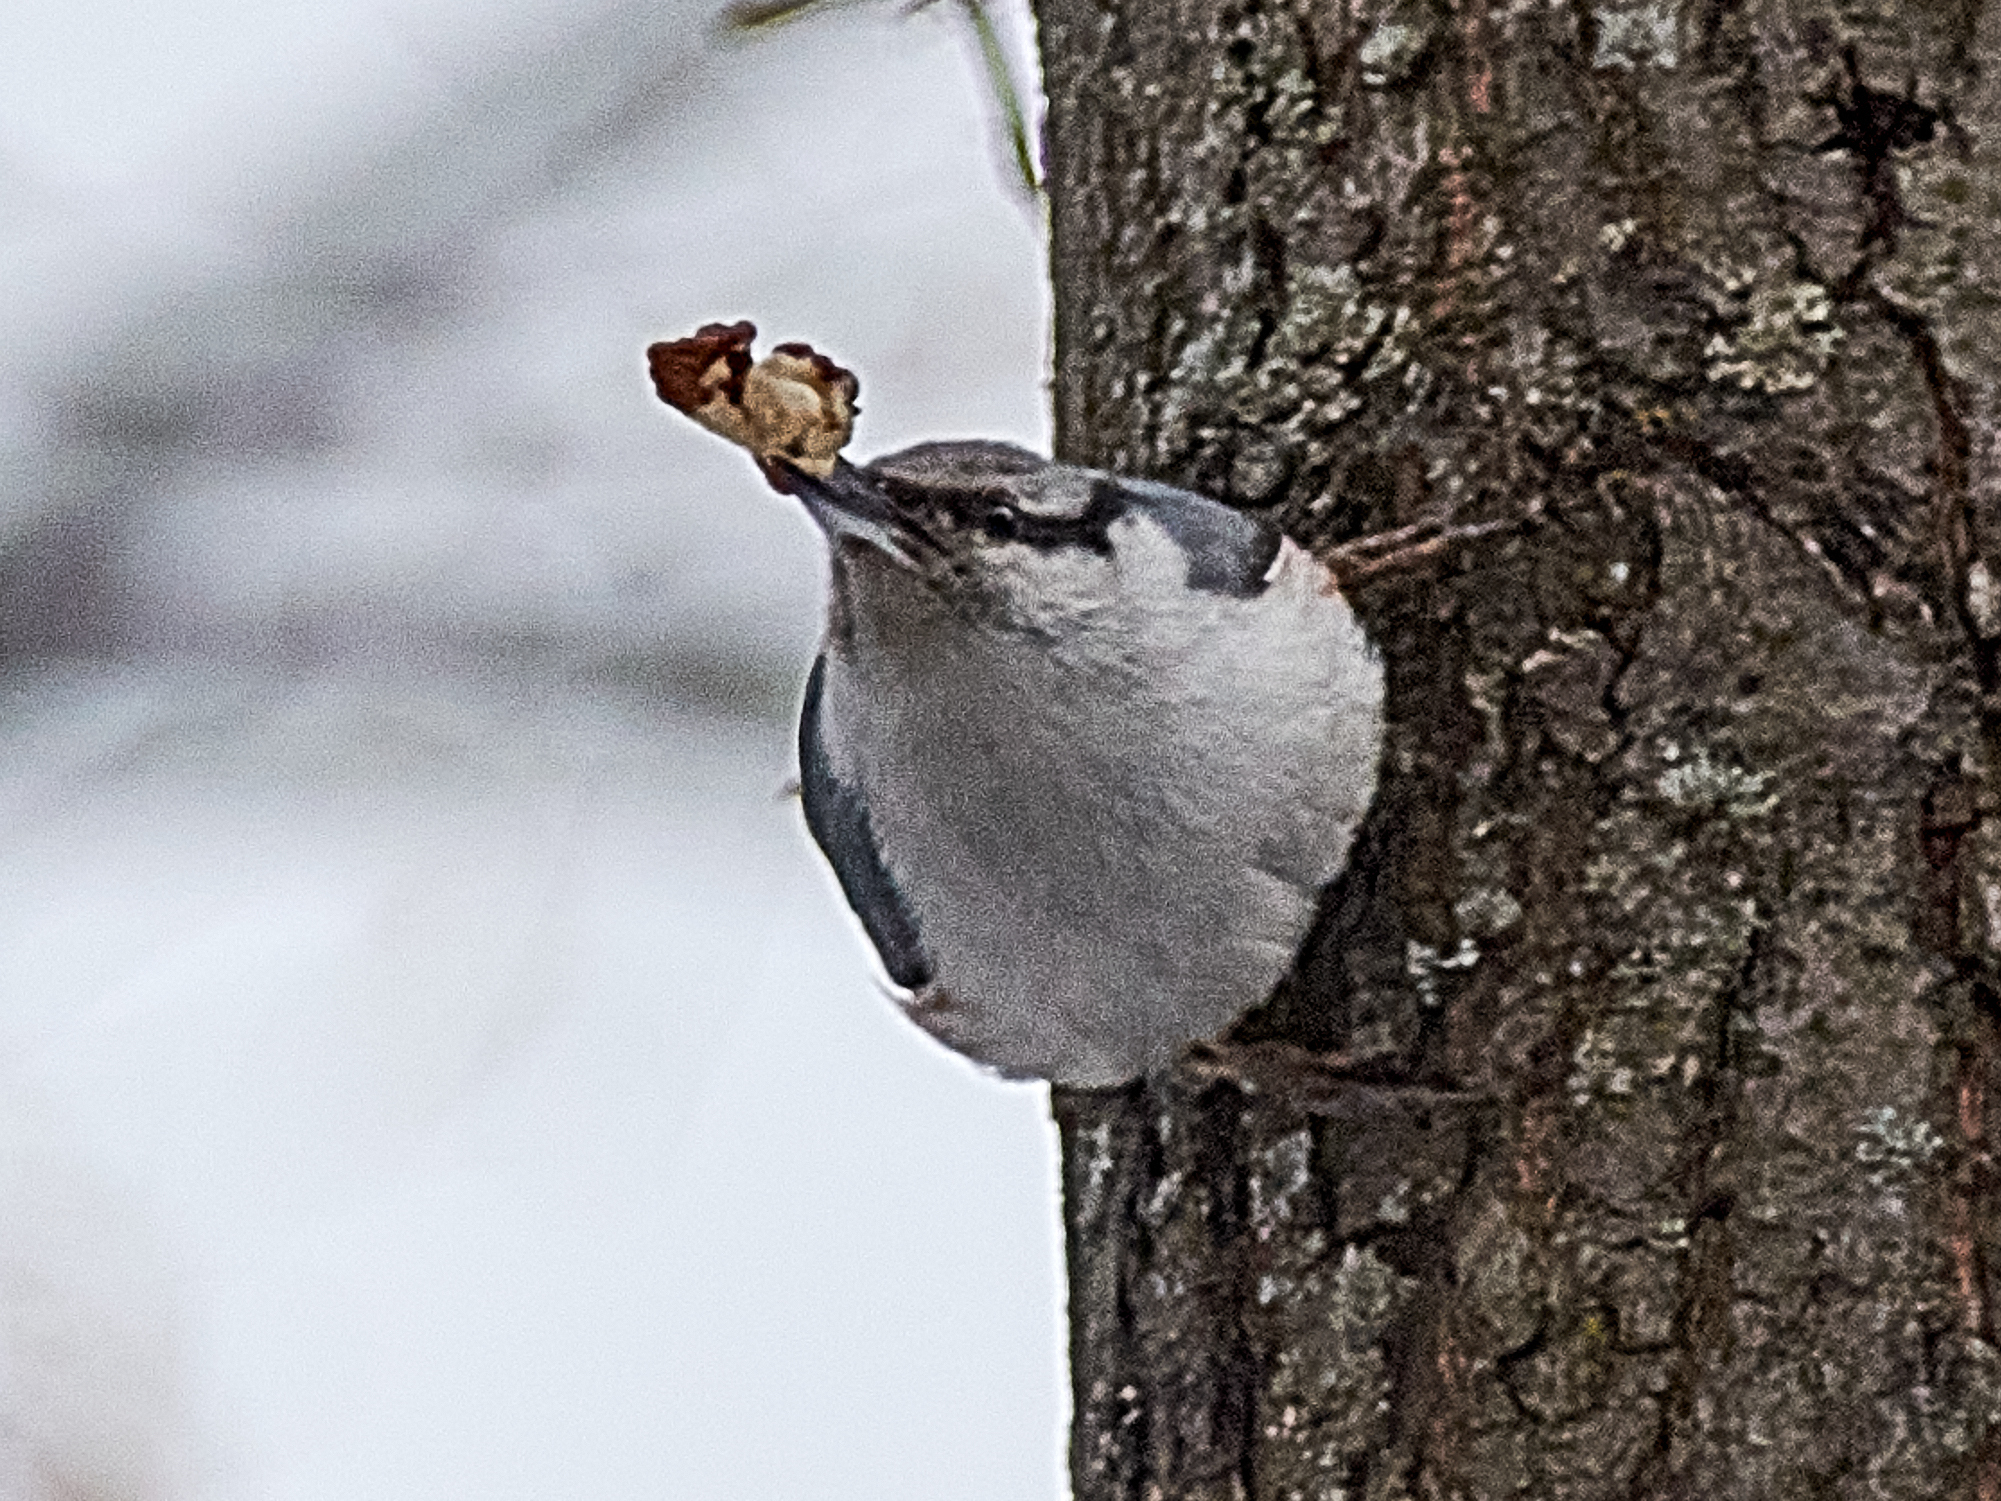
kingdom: Animalia
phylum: Chordata
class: Aves
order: Passeriformes
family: Sittidae
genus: Sitta
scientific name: Sitta europaea
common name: Eurasian nuthatch
